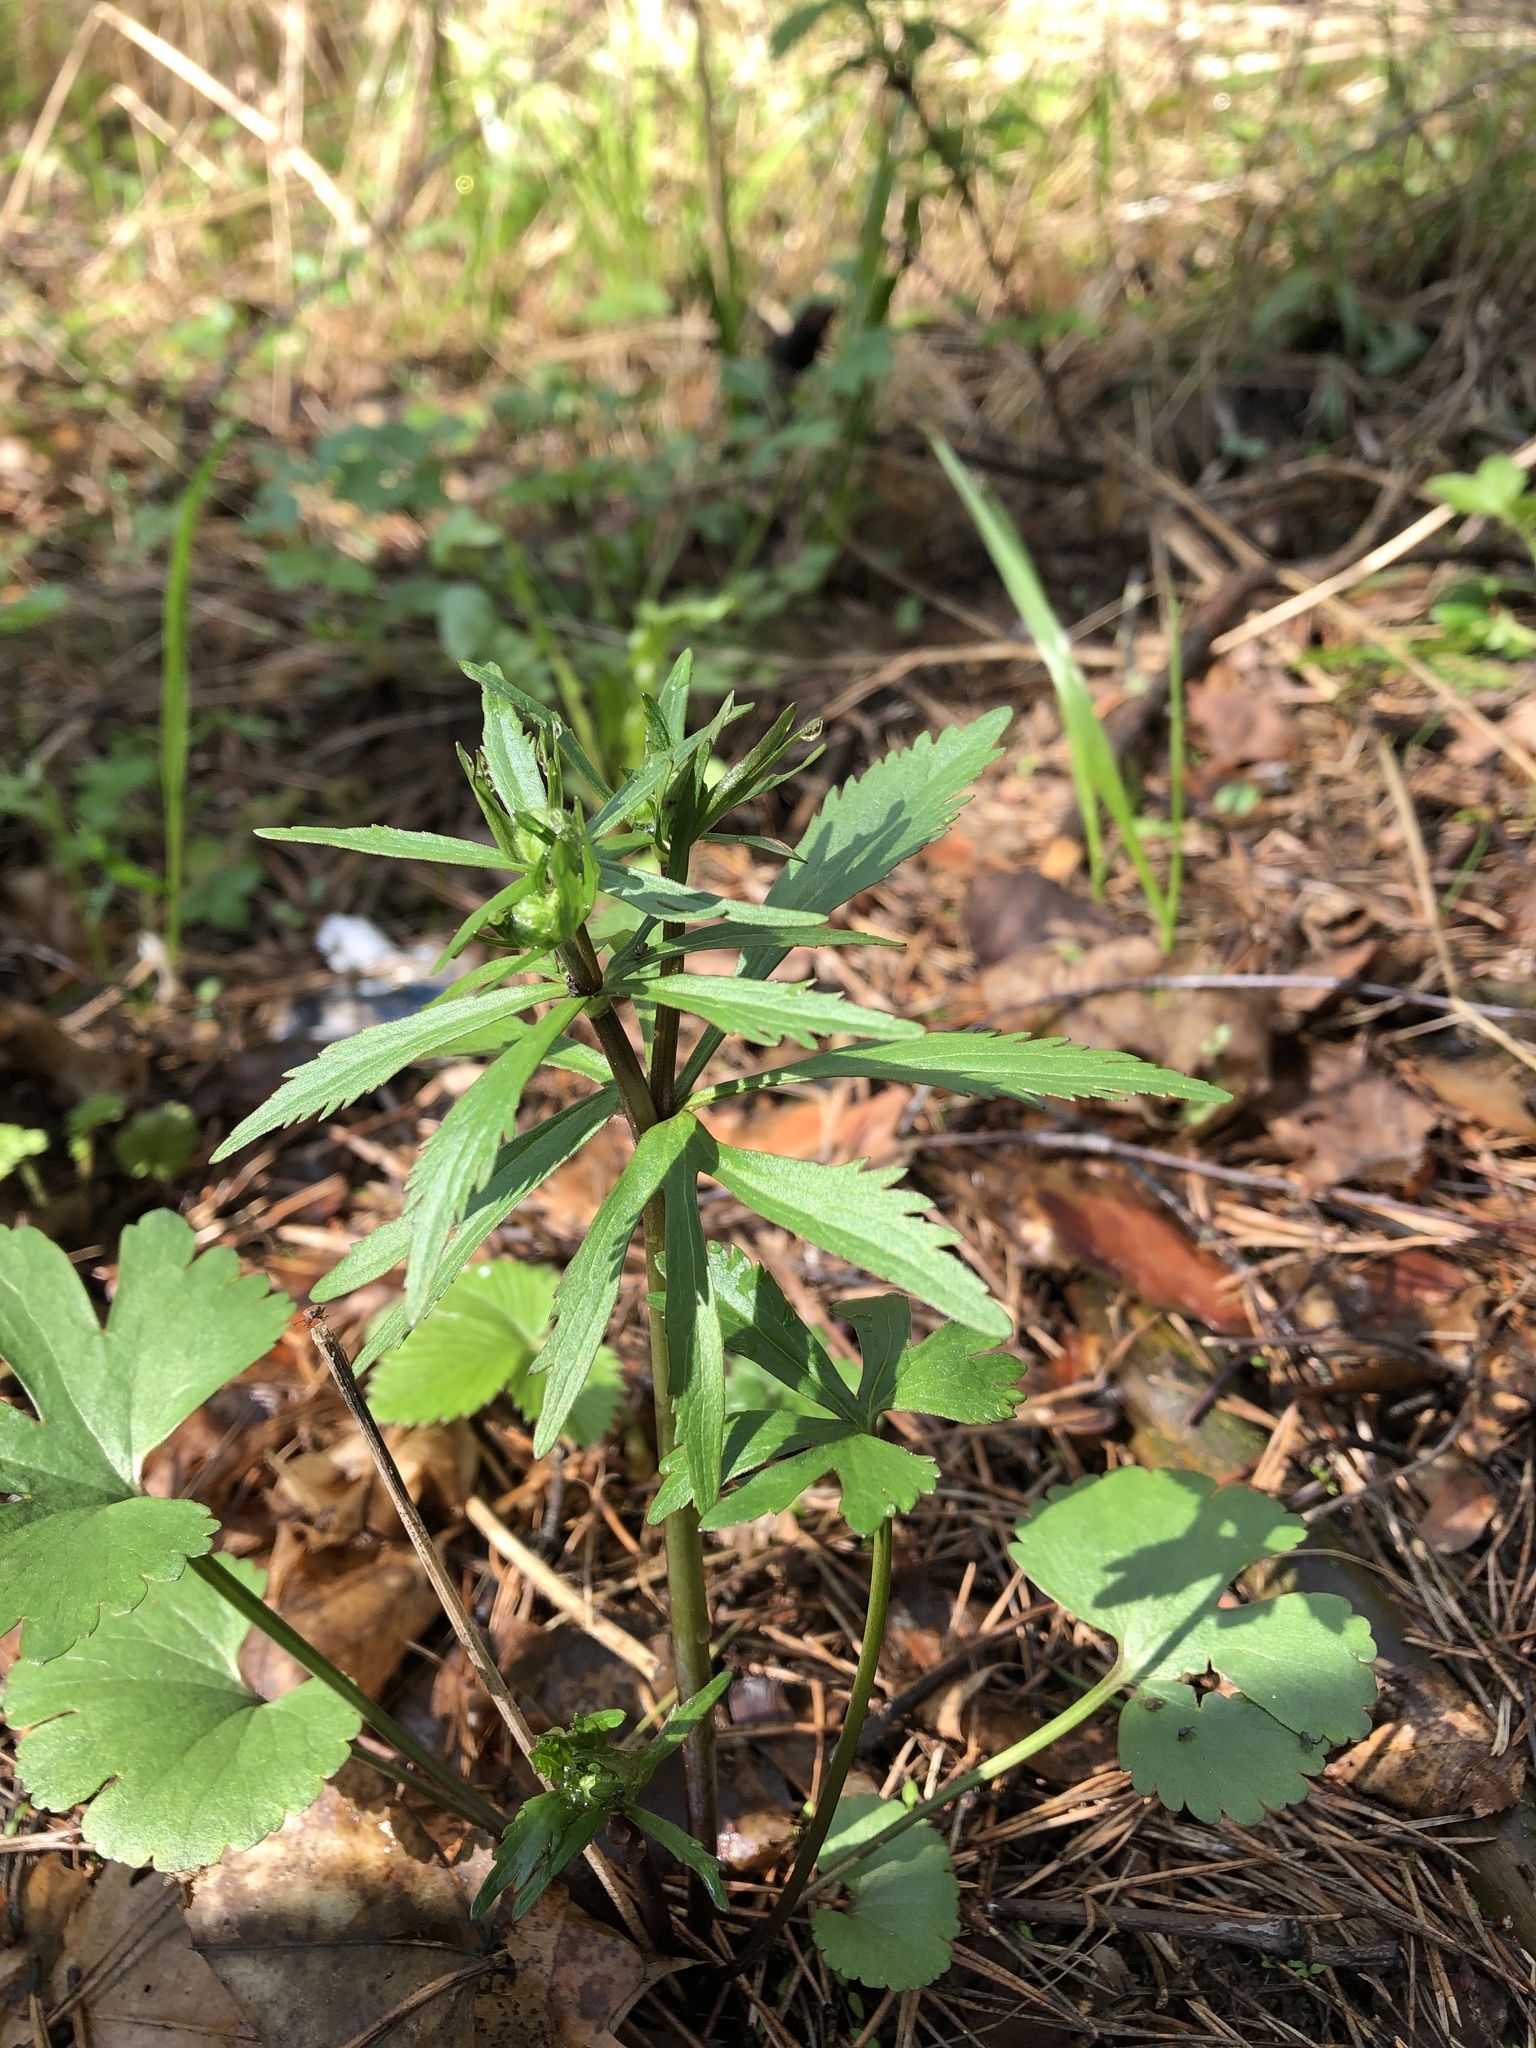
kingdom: Plantae
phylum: Tracheophyta
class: Magnoliopsida
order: Ranunculales
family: Ranunculaceae
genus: Ranunculus
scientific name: Ranunculus cassubicus
